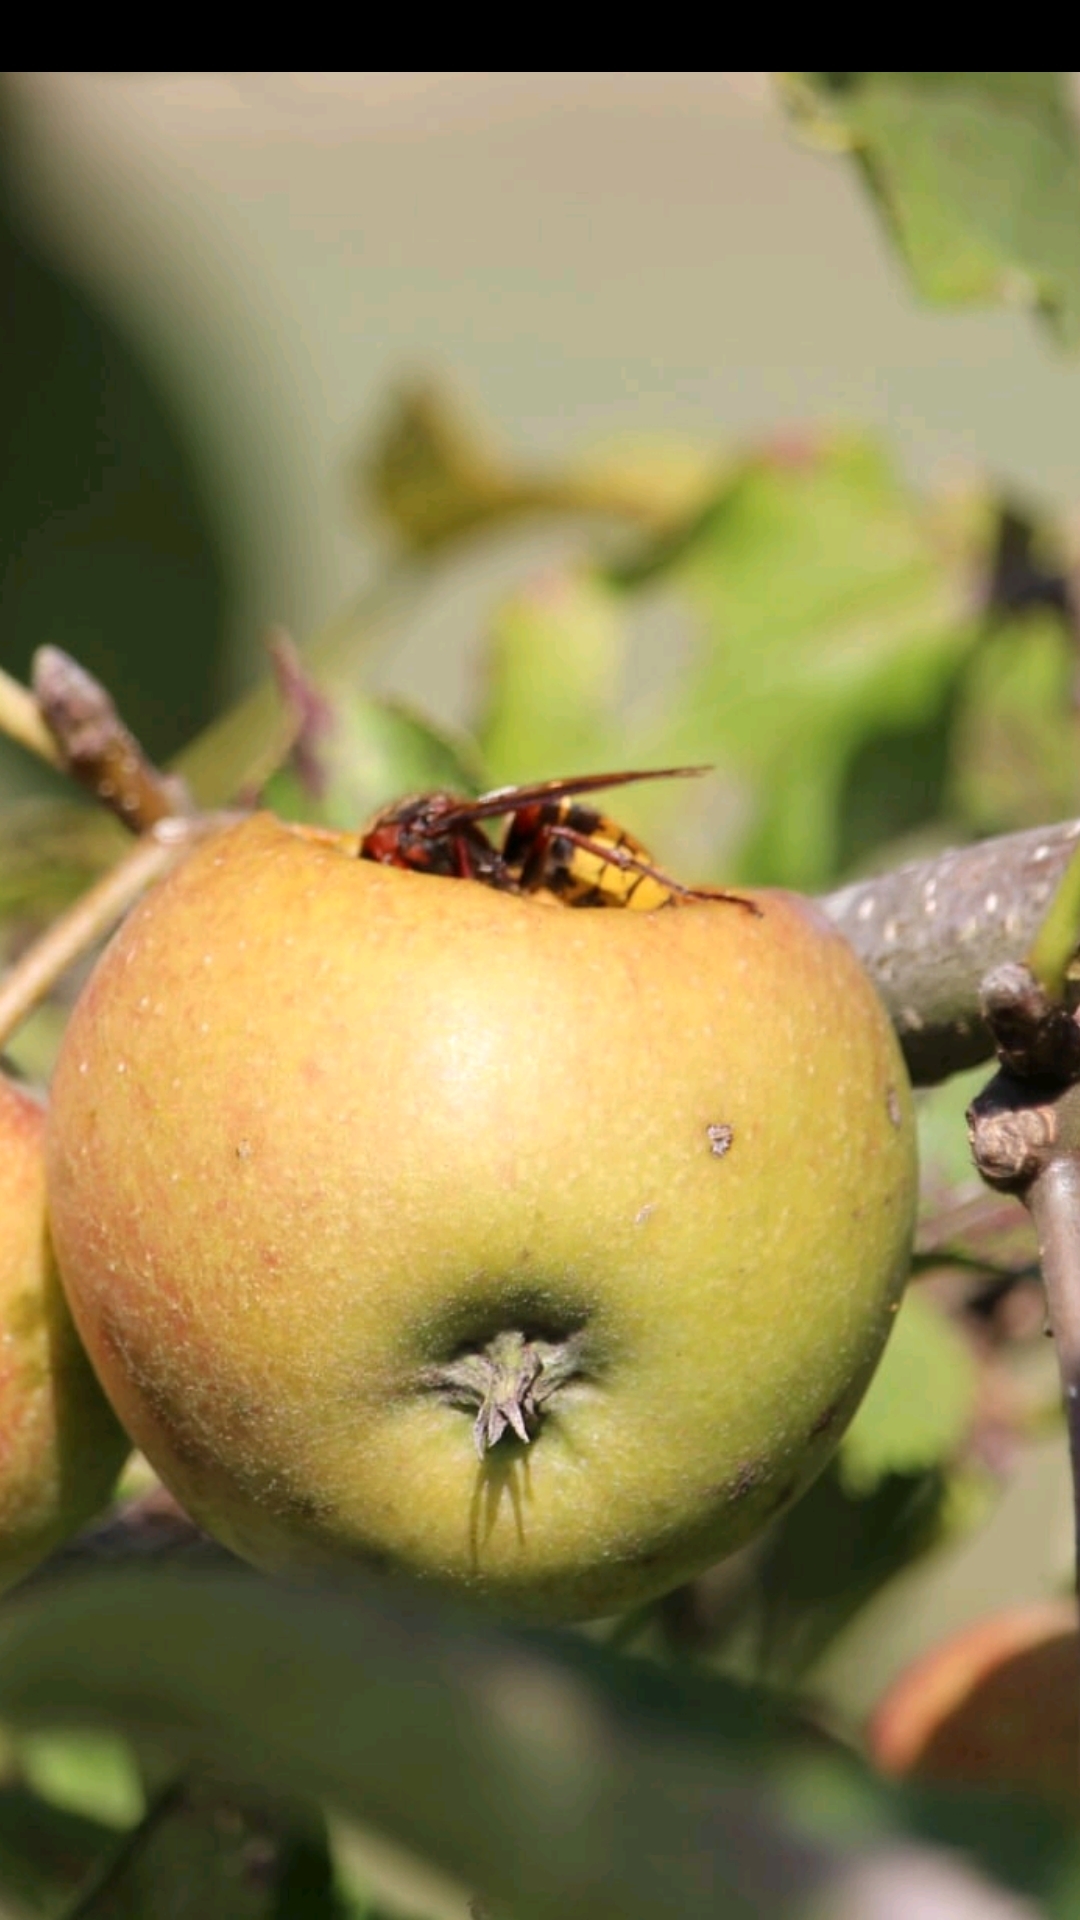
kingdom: Animalia
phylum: Arthropoda
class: Insecta
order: Hymenoptera
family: Vespidae
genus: Vespa
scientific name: Vespa crabro
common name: Hornet
